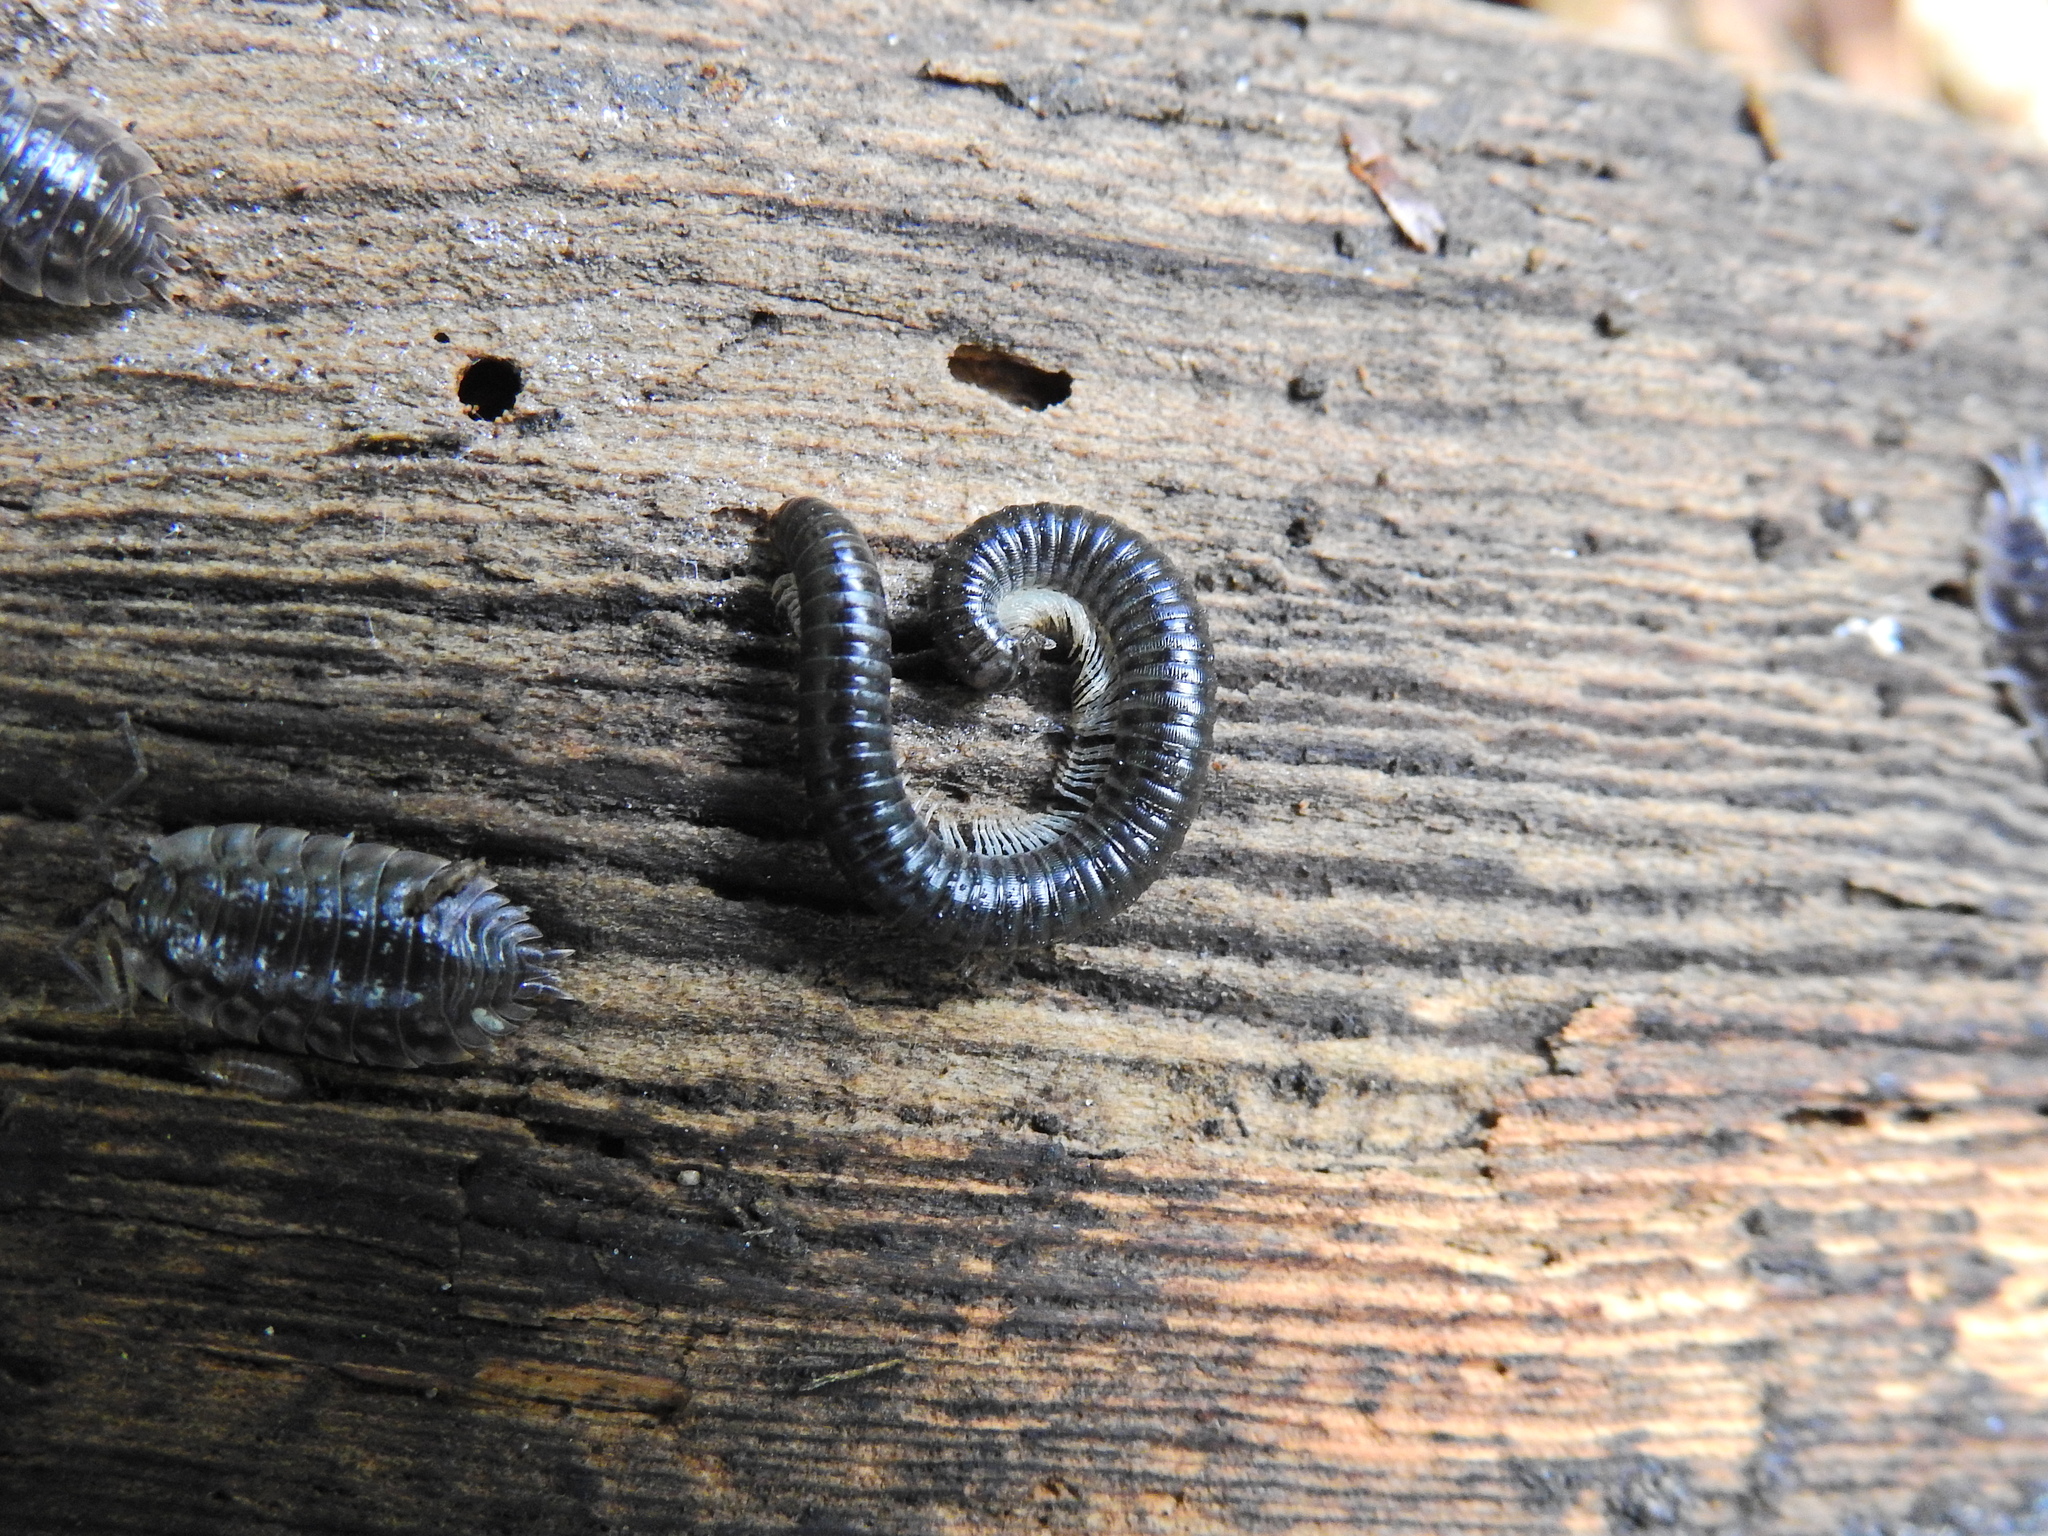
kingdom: Animalia
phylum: Arthropoda
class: Diplopoda
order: Julida
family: Julidae
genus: Tachypodoiulus
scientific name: Tachypodoiulus niger
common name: White-legged snake millipede
